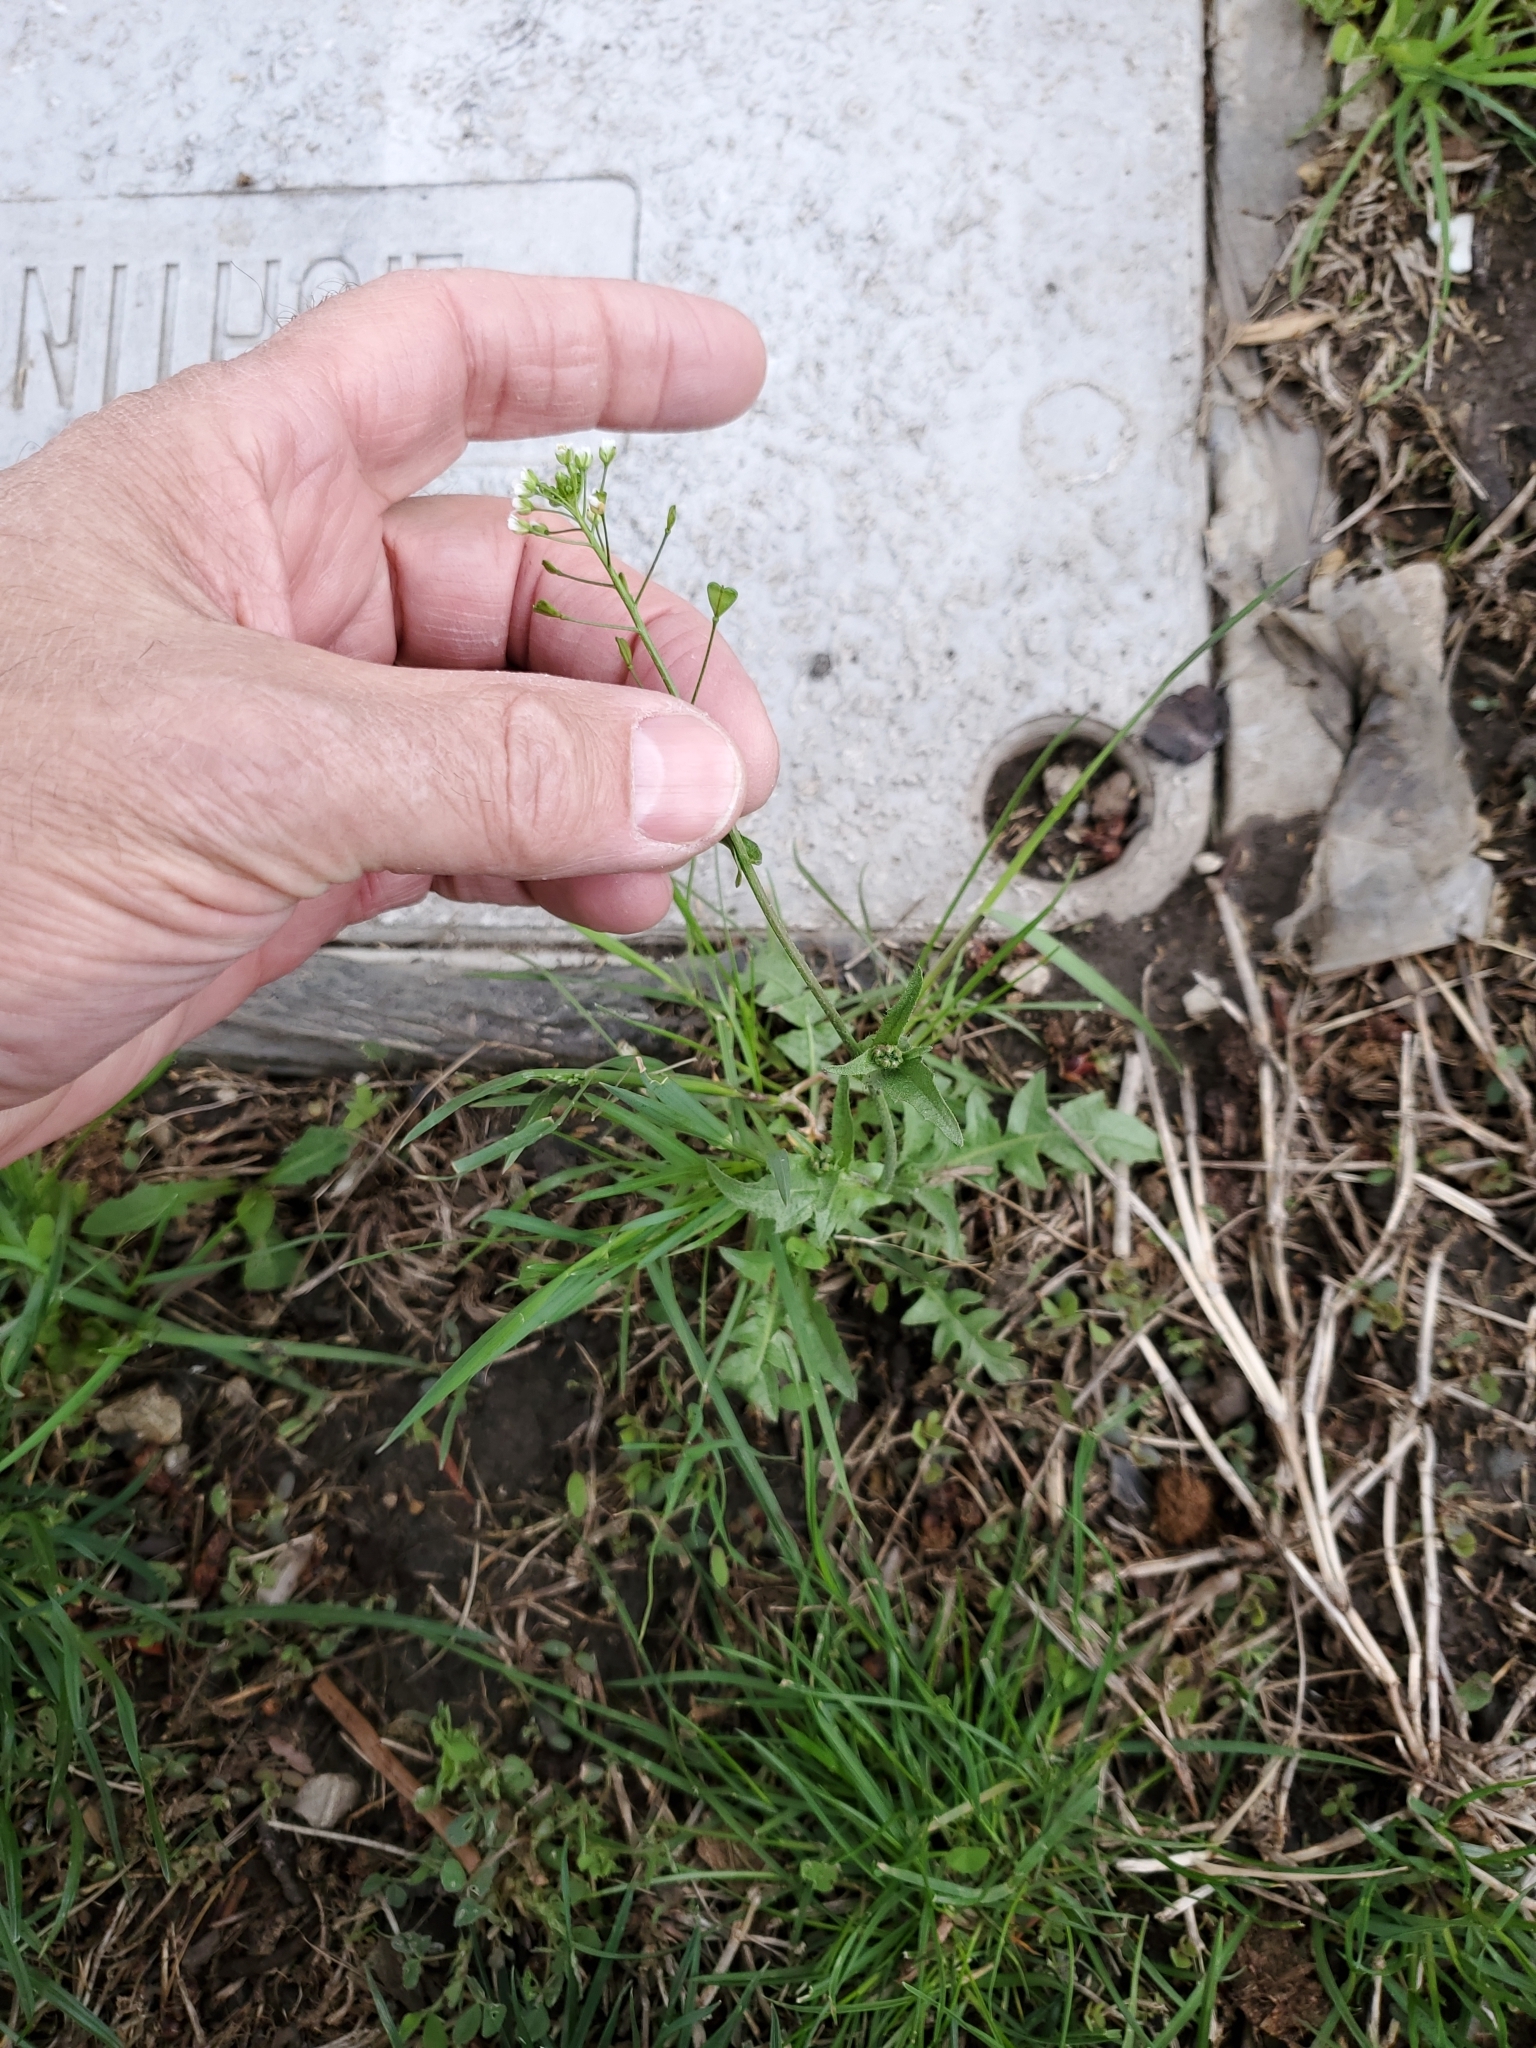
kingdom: Plantae
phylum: Tracheophyta
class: Magnoliopsida
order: Brassicales
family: Brassicaceae
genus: Capsella
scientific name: Capsella bursa-pastoris
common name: Shepherd's purse
